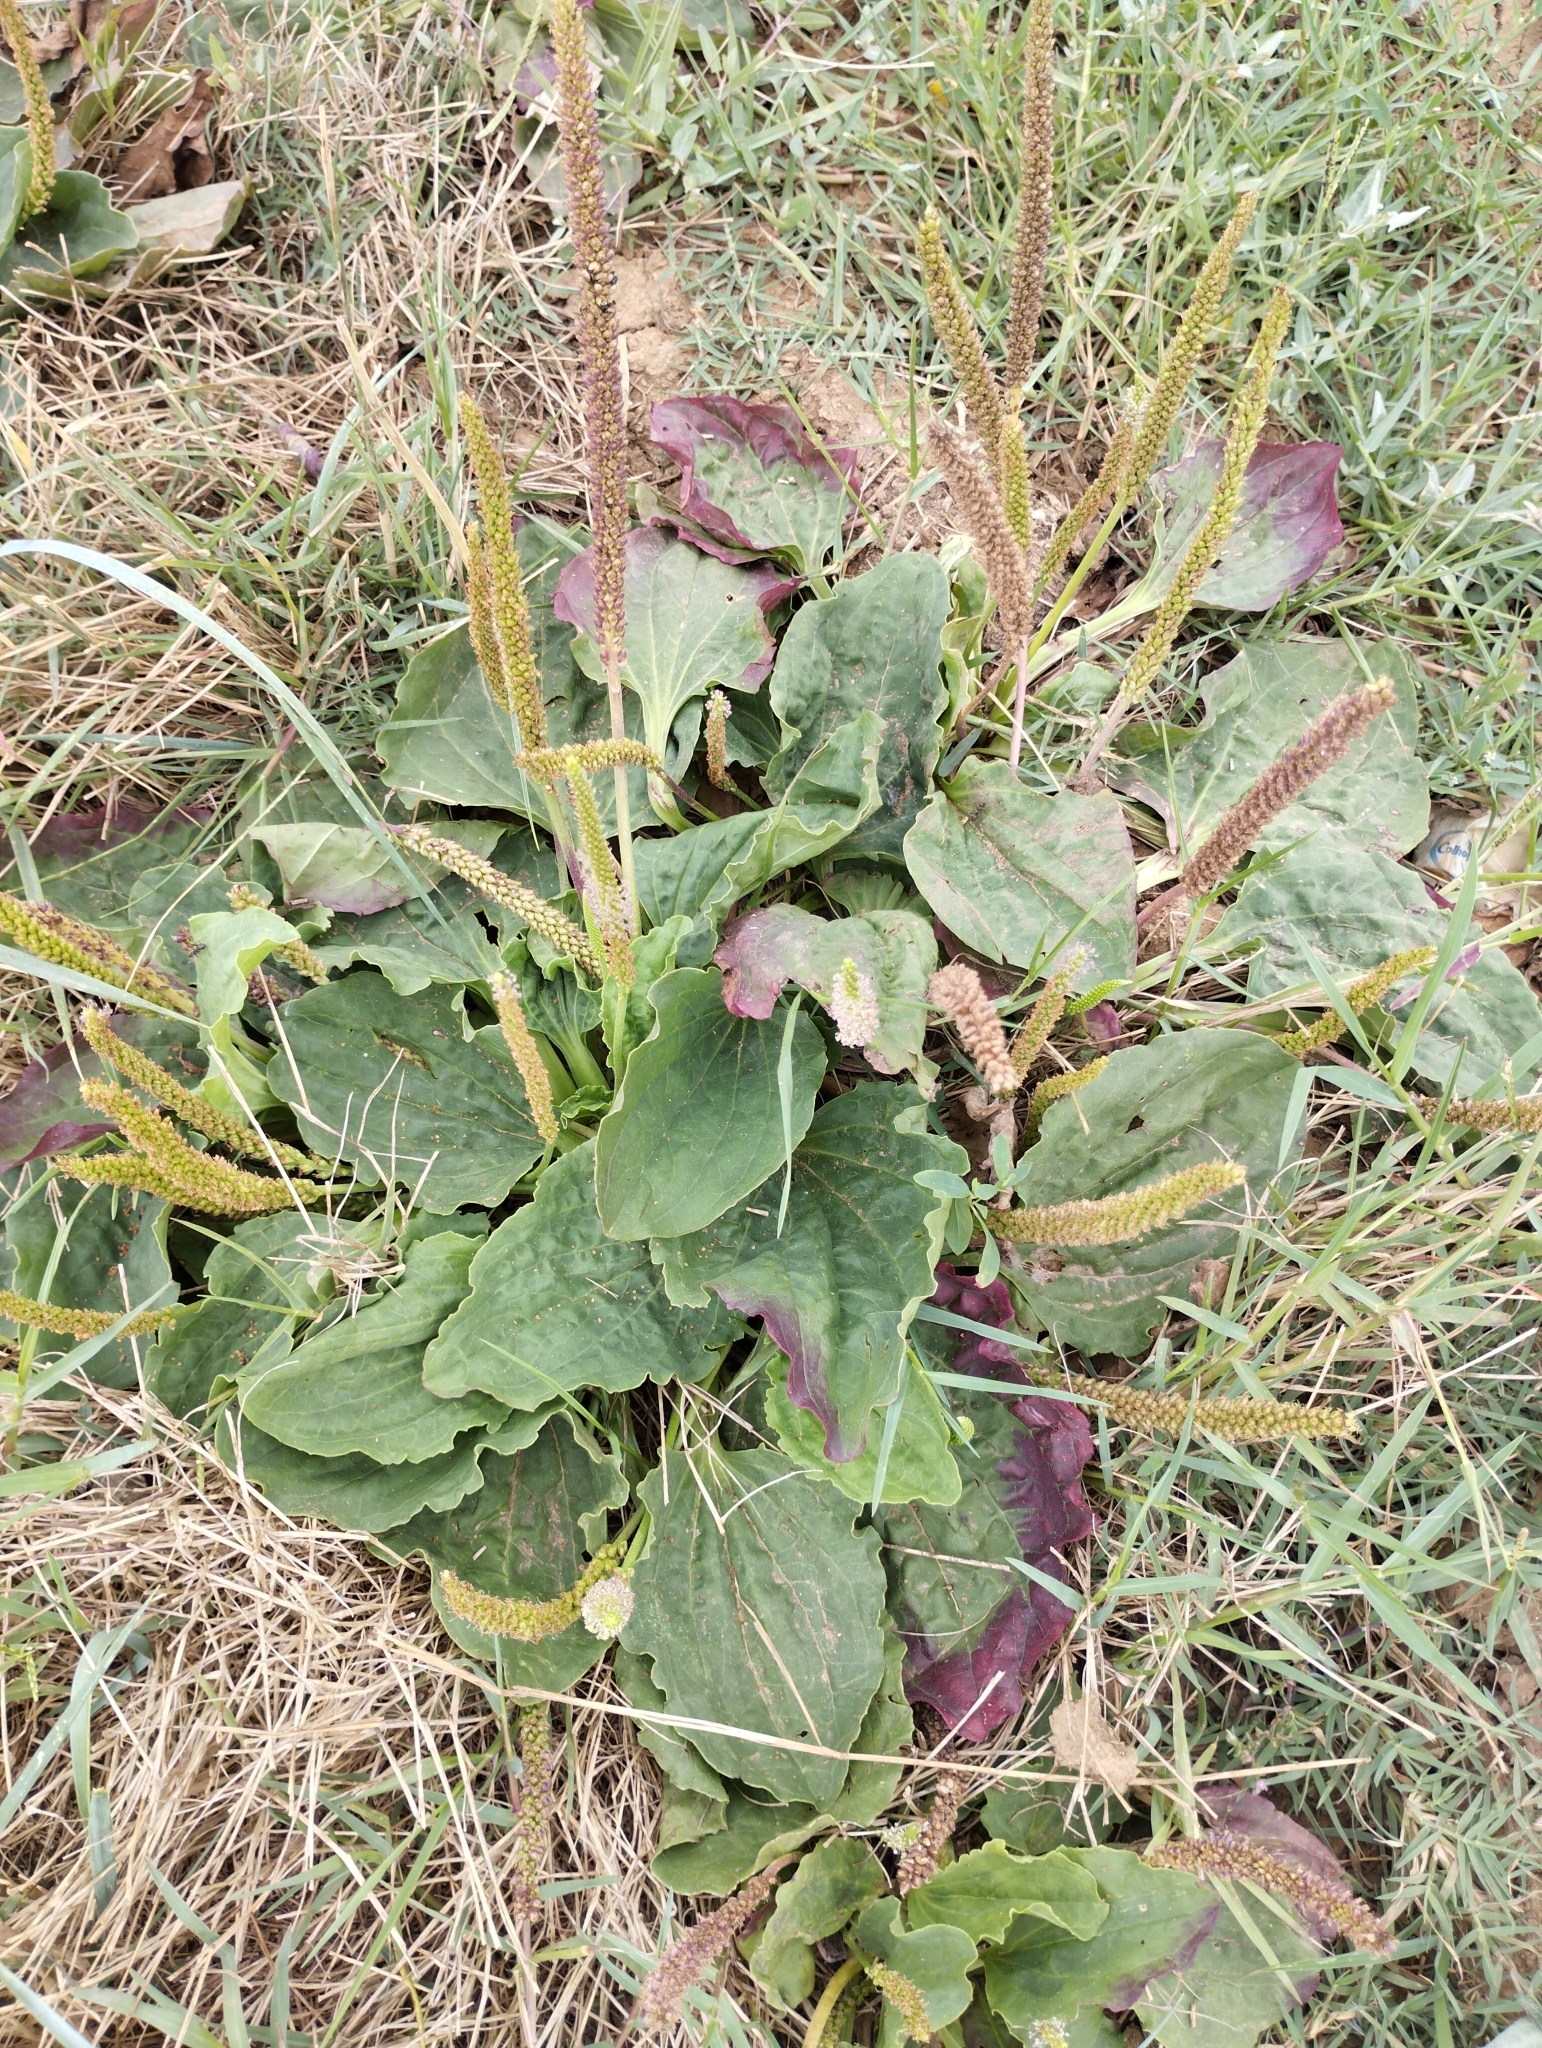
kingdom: Plantae
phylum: Tracheophyta
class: Magnoliopsida
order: Lamiales
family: Plantaginaceae
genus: Plantago
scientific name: Plantago major
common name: Common plantain
